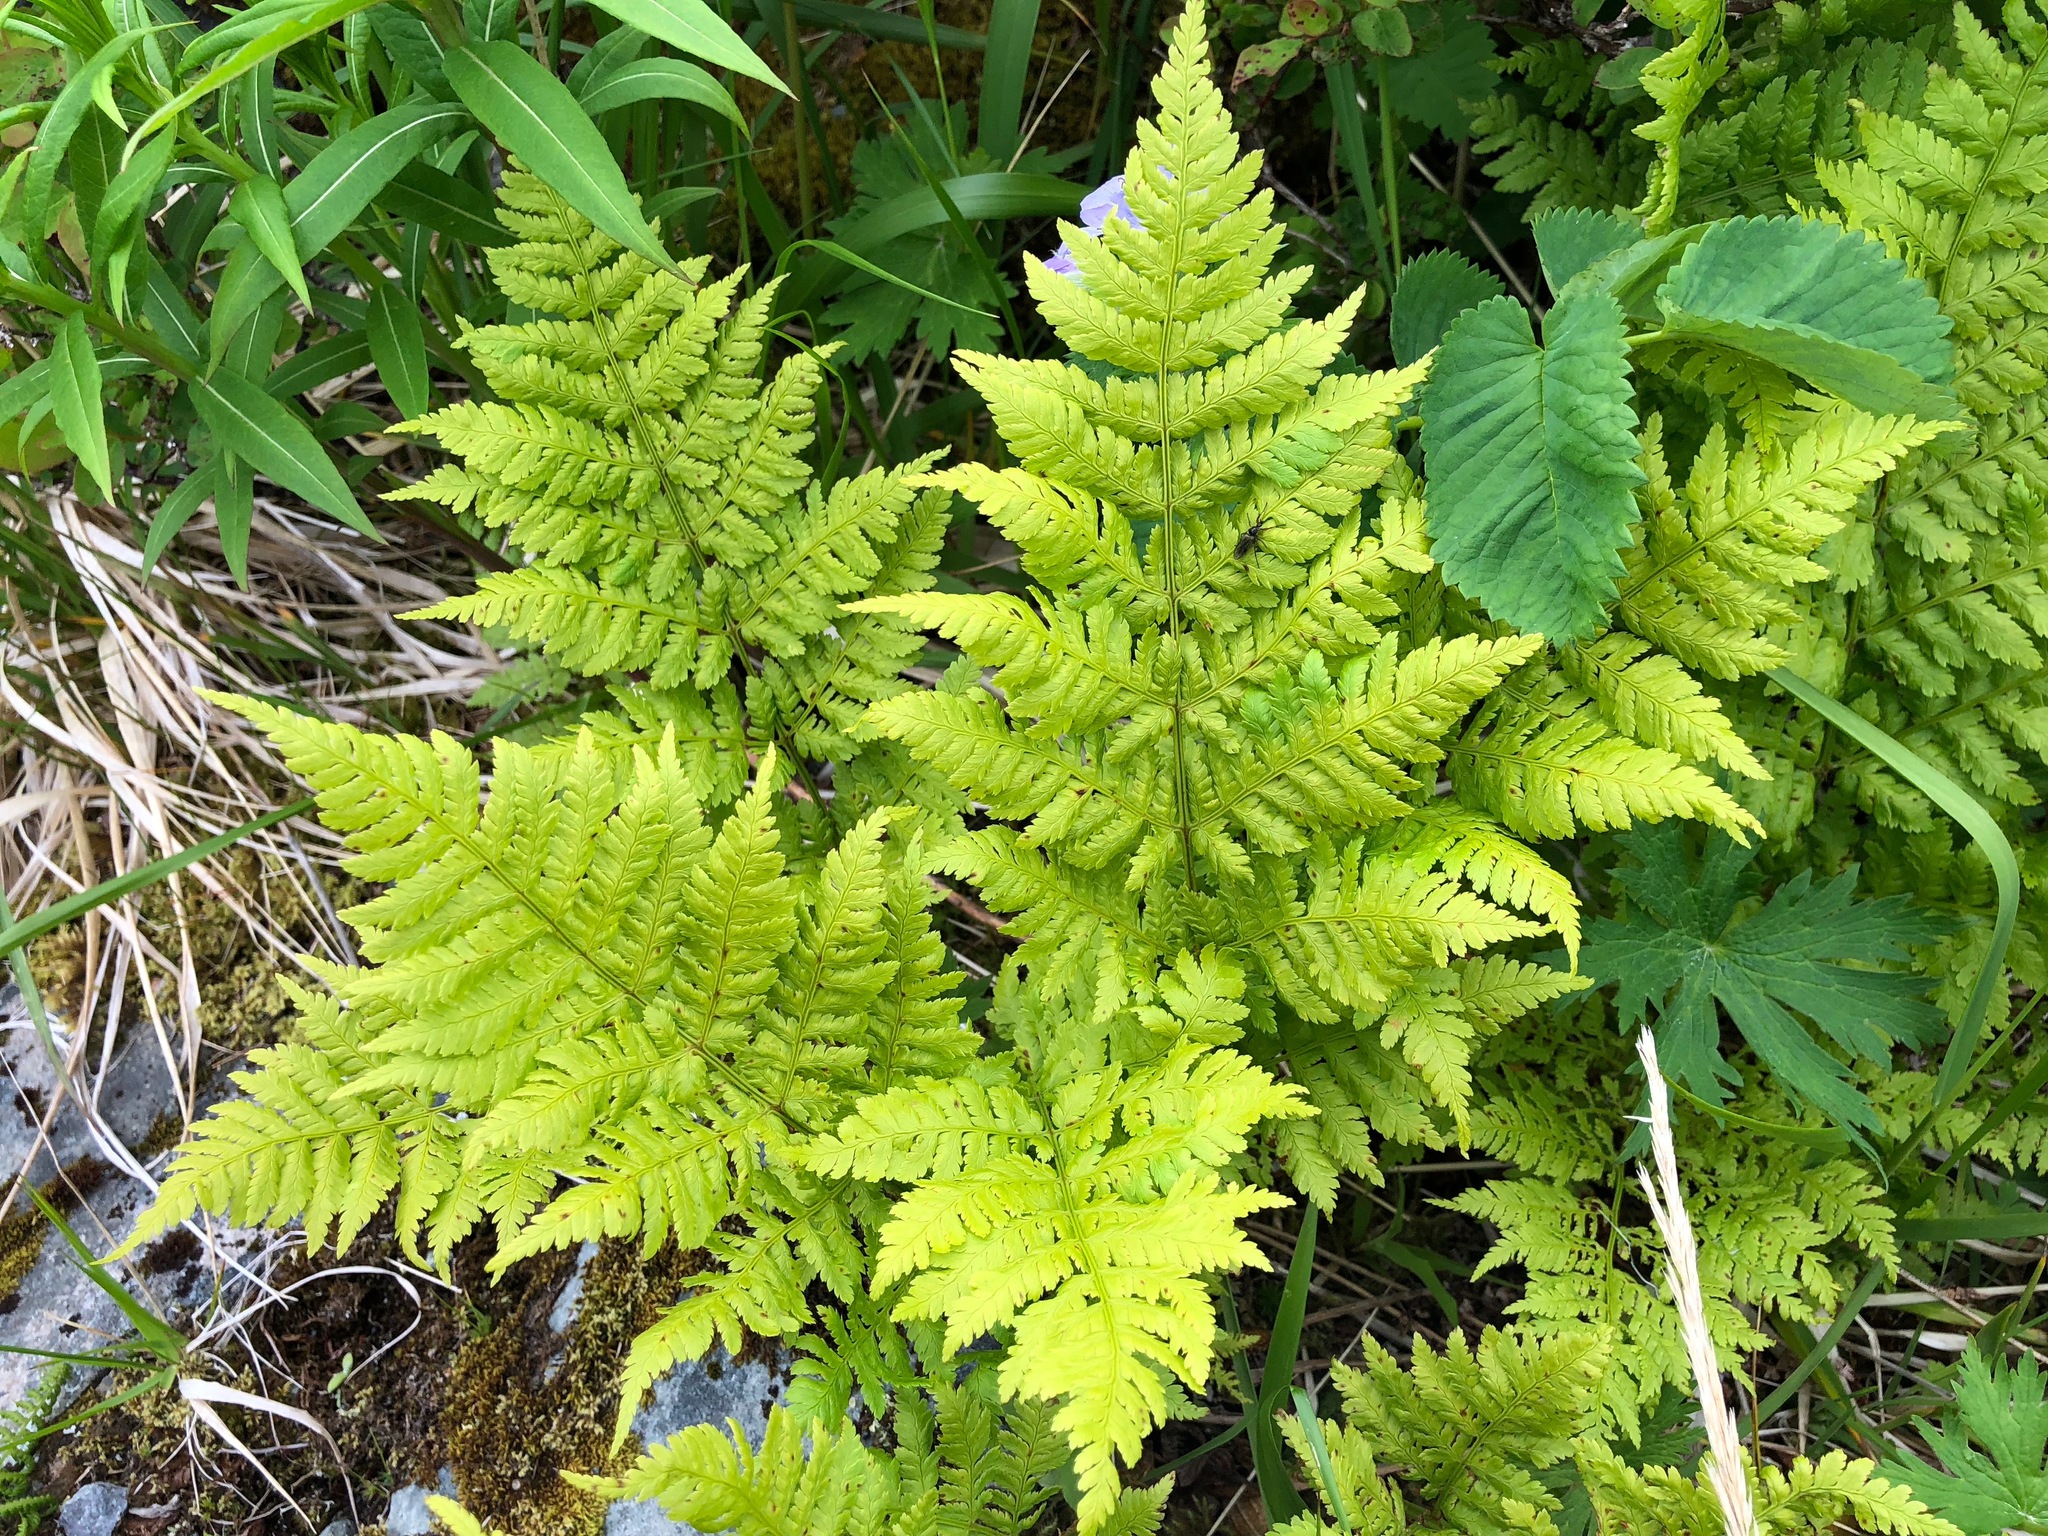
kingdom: Plantae
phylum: Tracheophyta
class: Polypodiopsida
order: Polypodiales
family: Dryopteridaceae
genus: Dryopteris
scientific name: Dryopteris expansa
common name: Northern buckler fern
